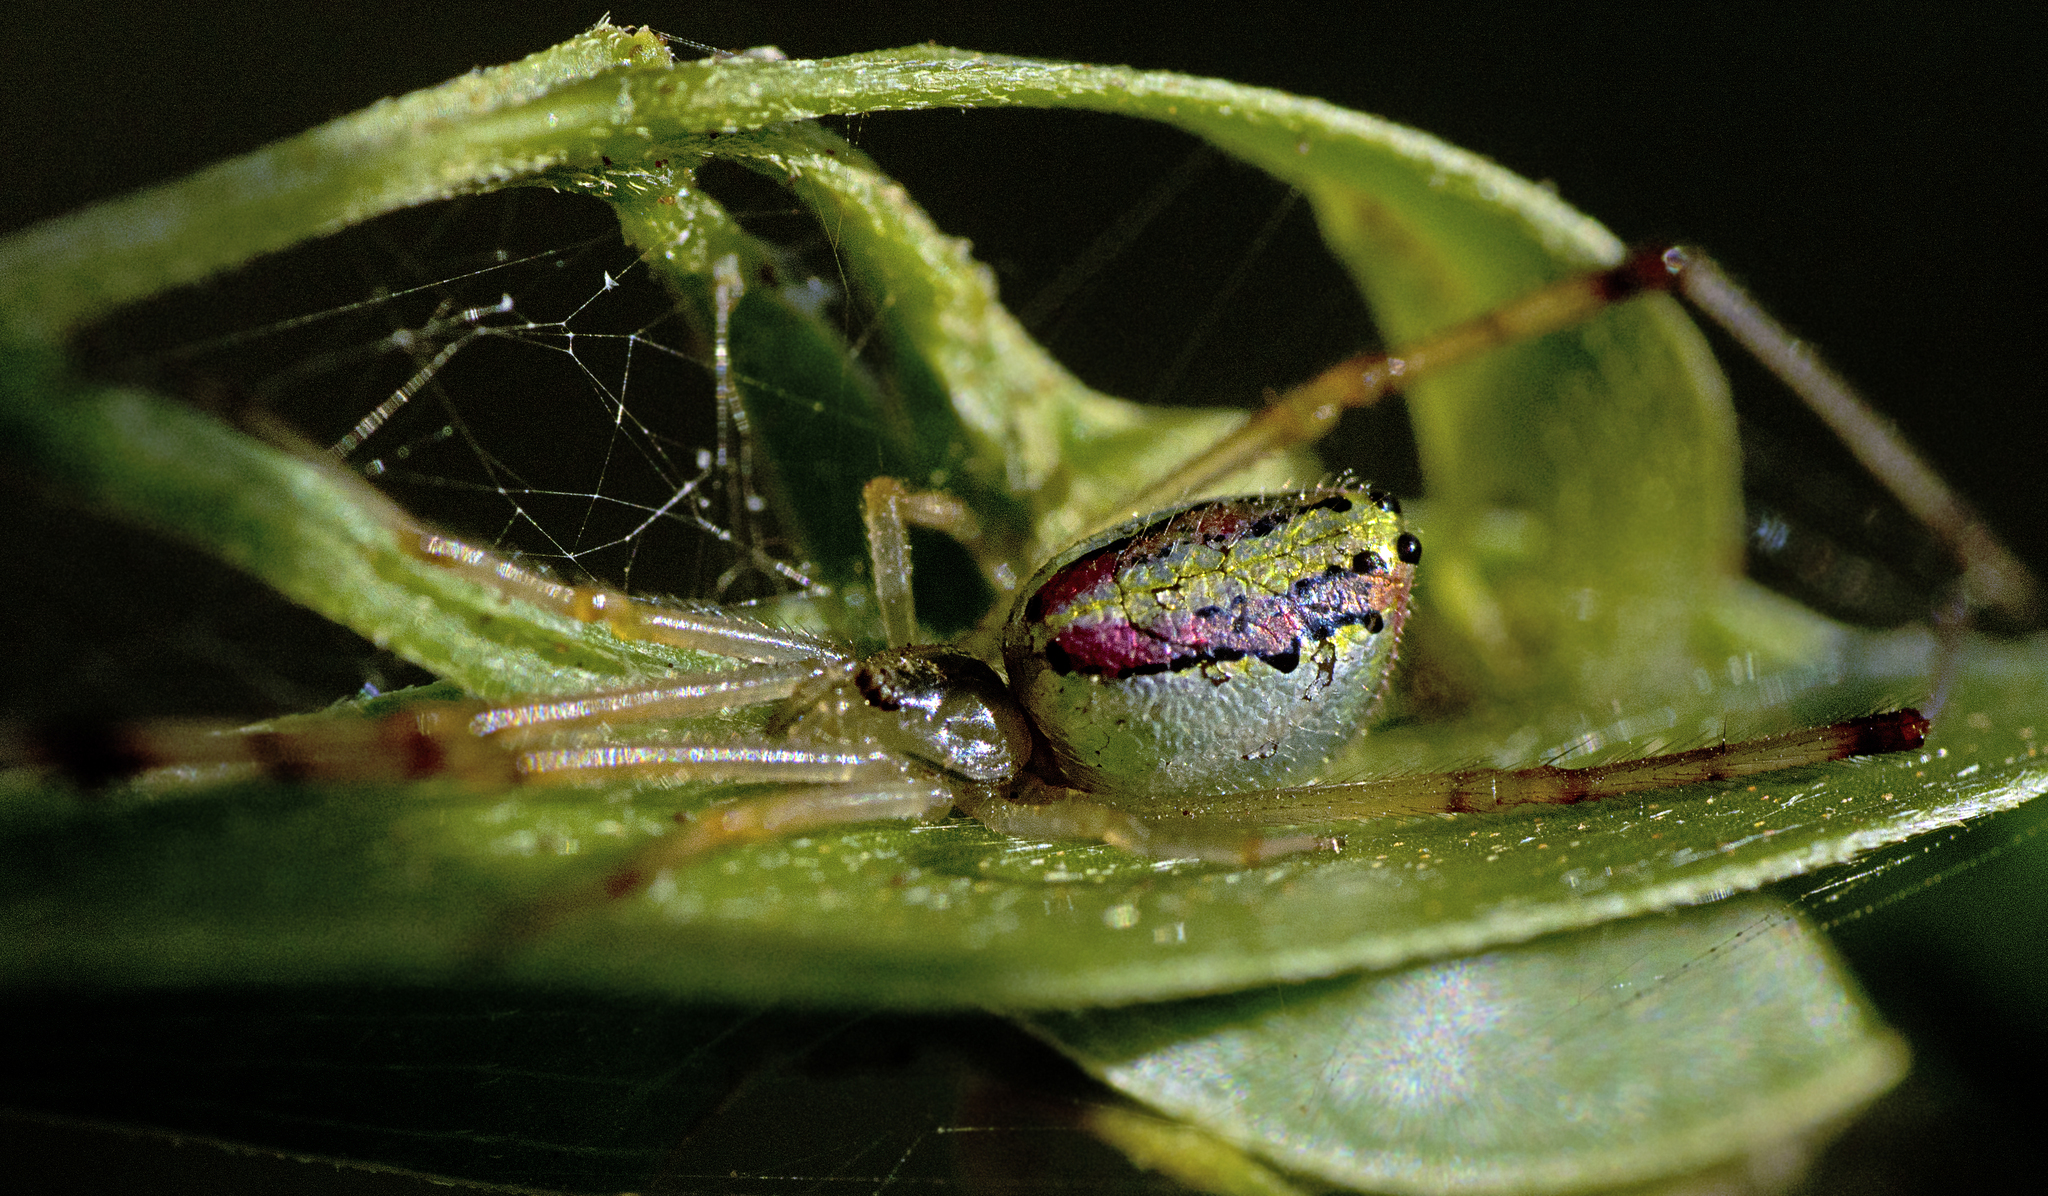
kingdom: Animalia
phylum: Arthropoda
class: Arachnida
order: Araneae
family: Theridiidae
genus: Thwaitesia
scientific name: Thwaitesia nigronodosa
